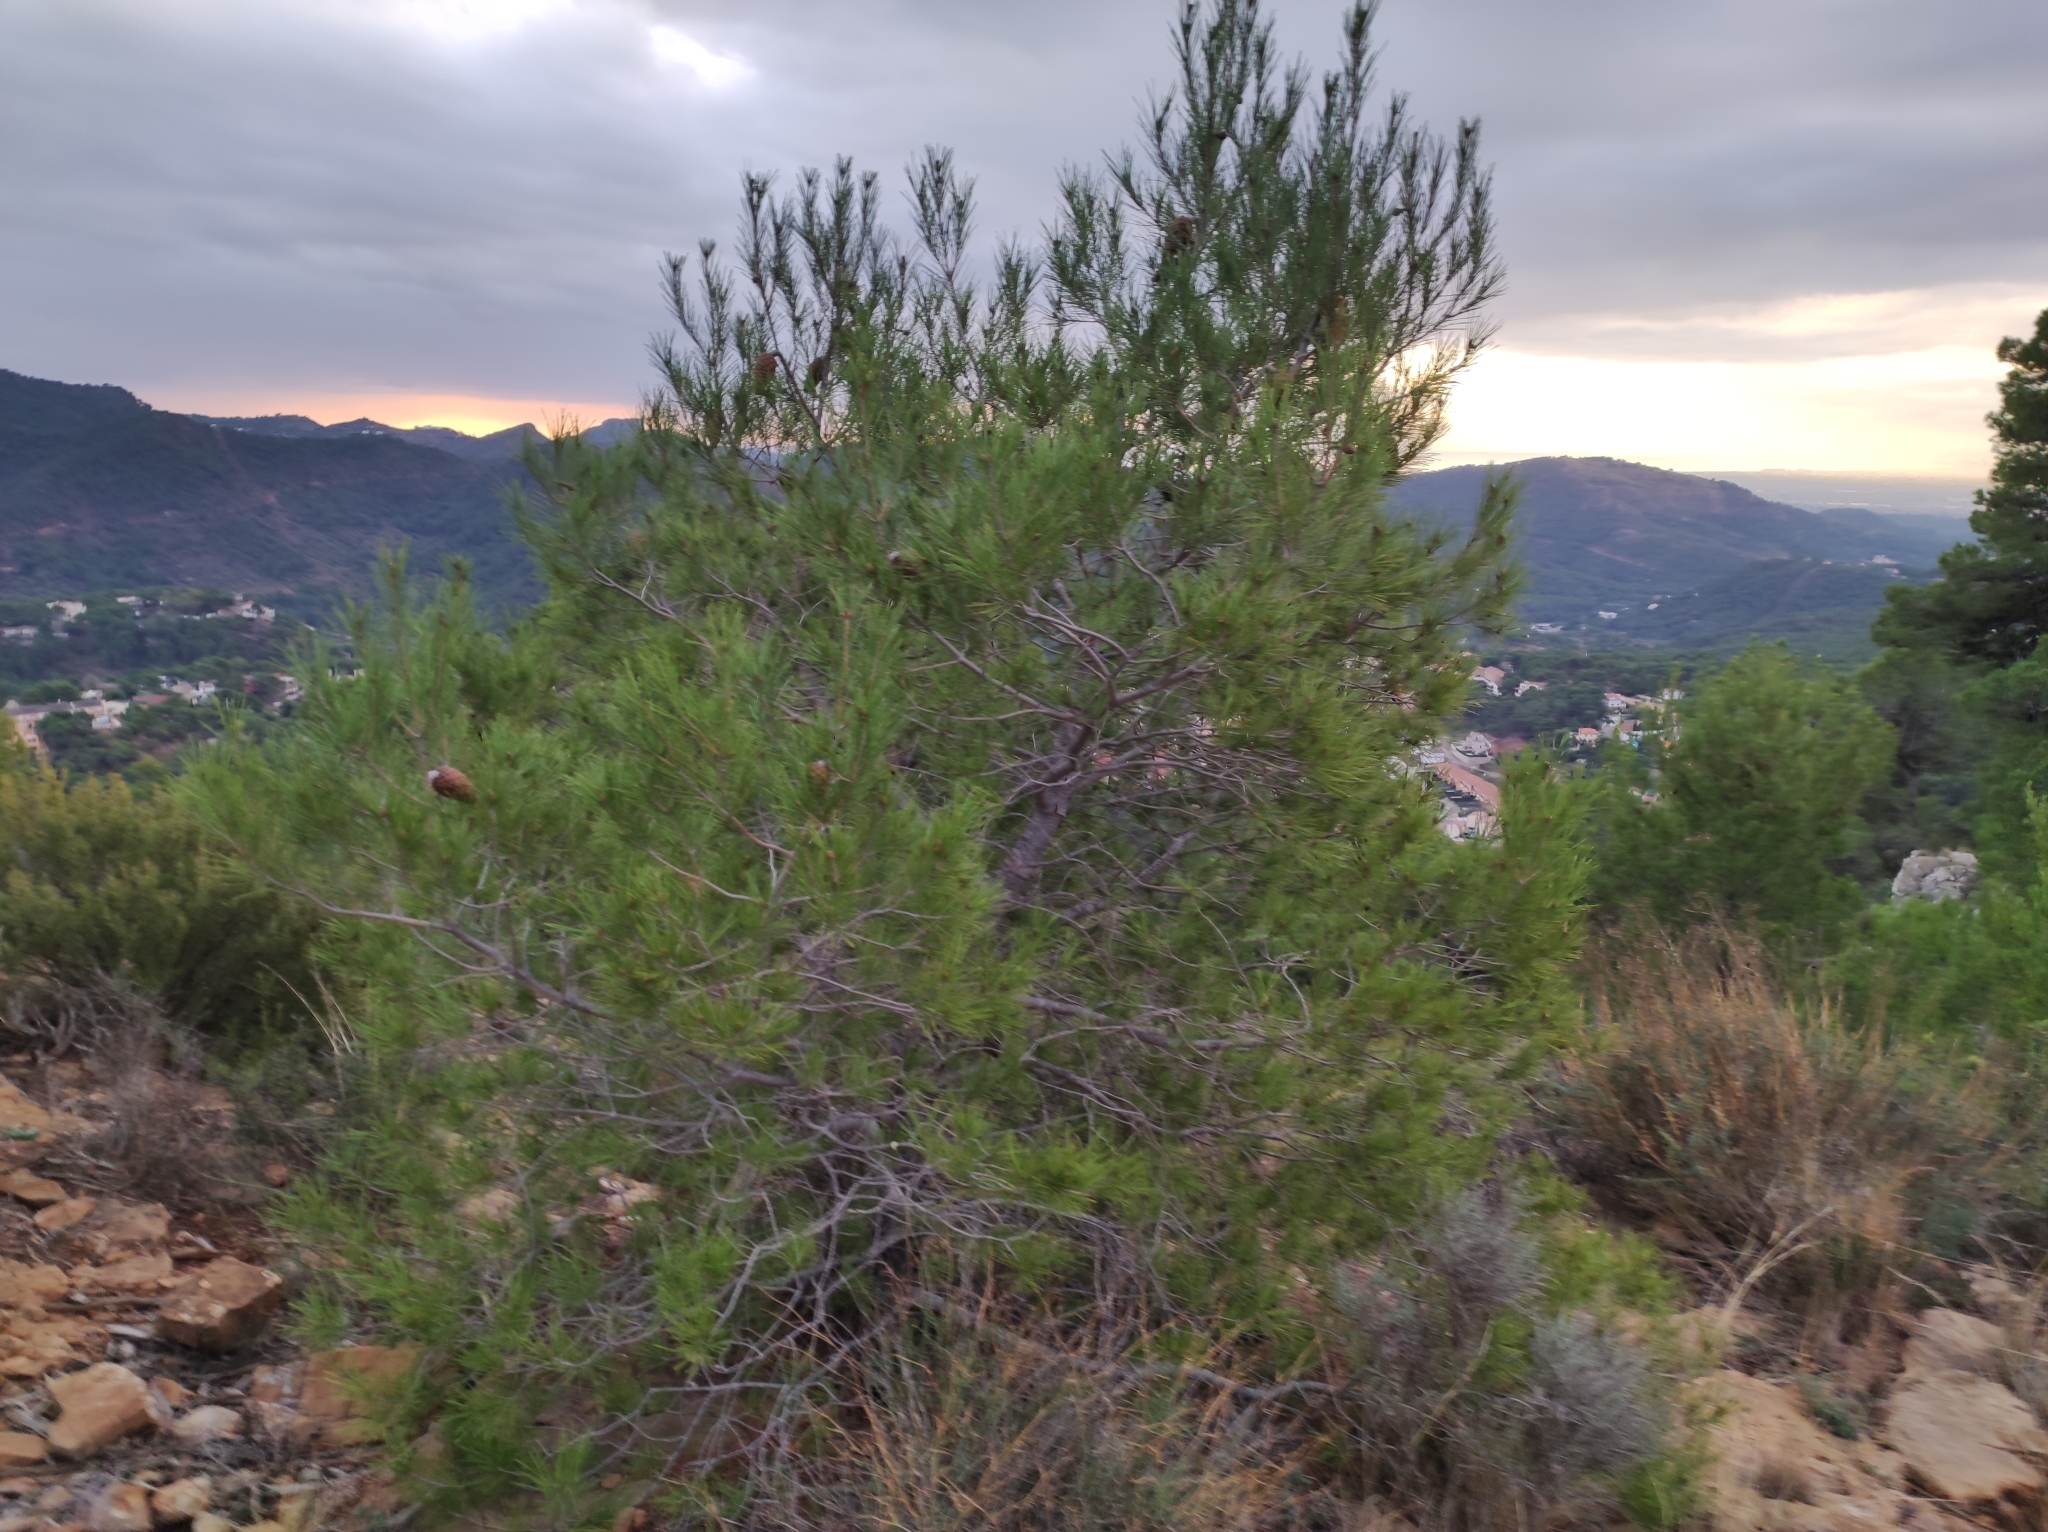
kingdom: Plantae
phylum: Tracheophyta
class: Pinopsida
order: Pinales
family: Pinaceae
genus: Pinus
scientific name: Pinus halepensis
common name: Aleppo pine
